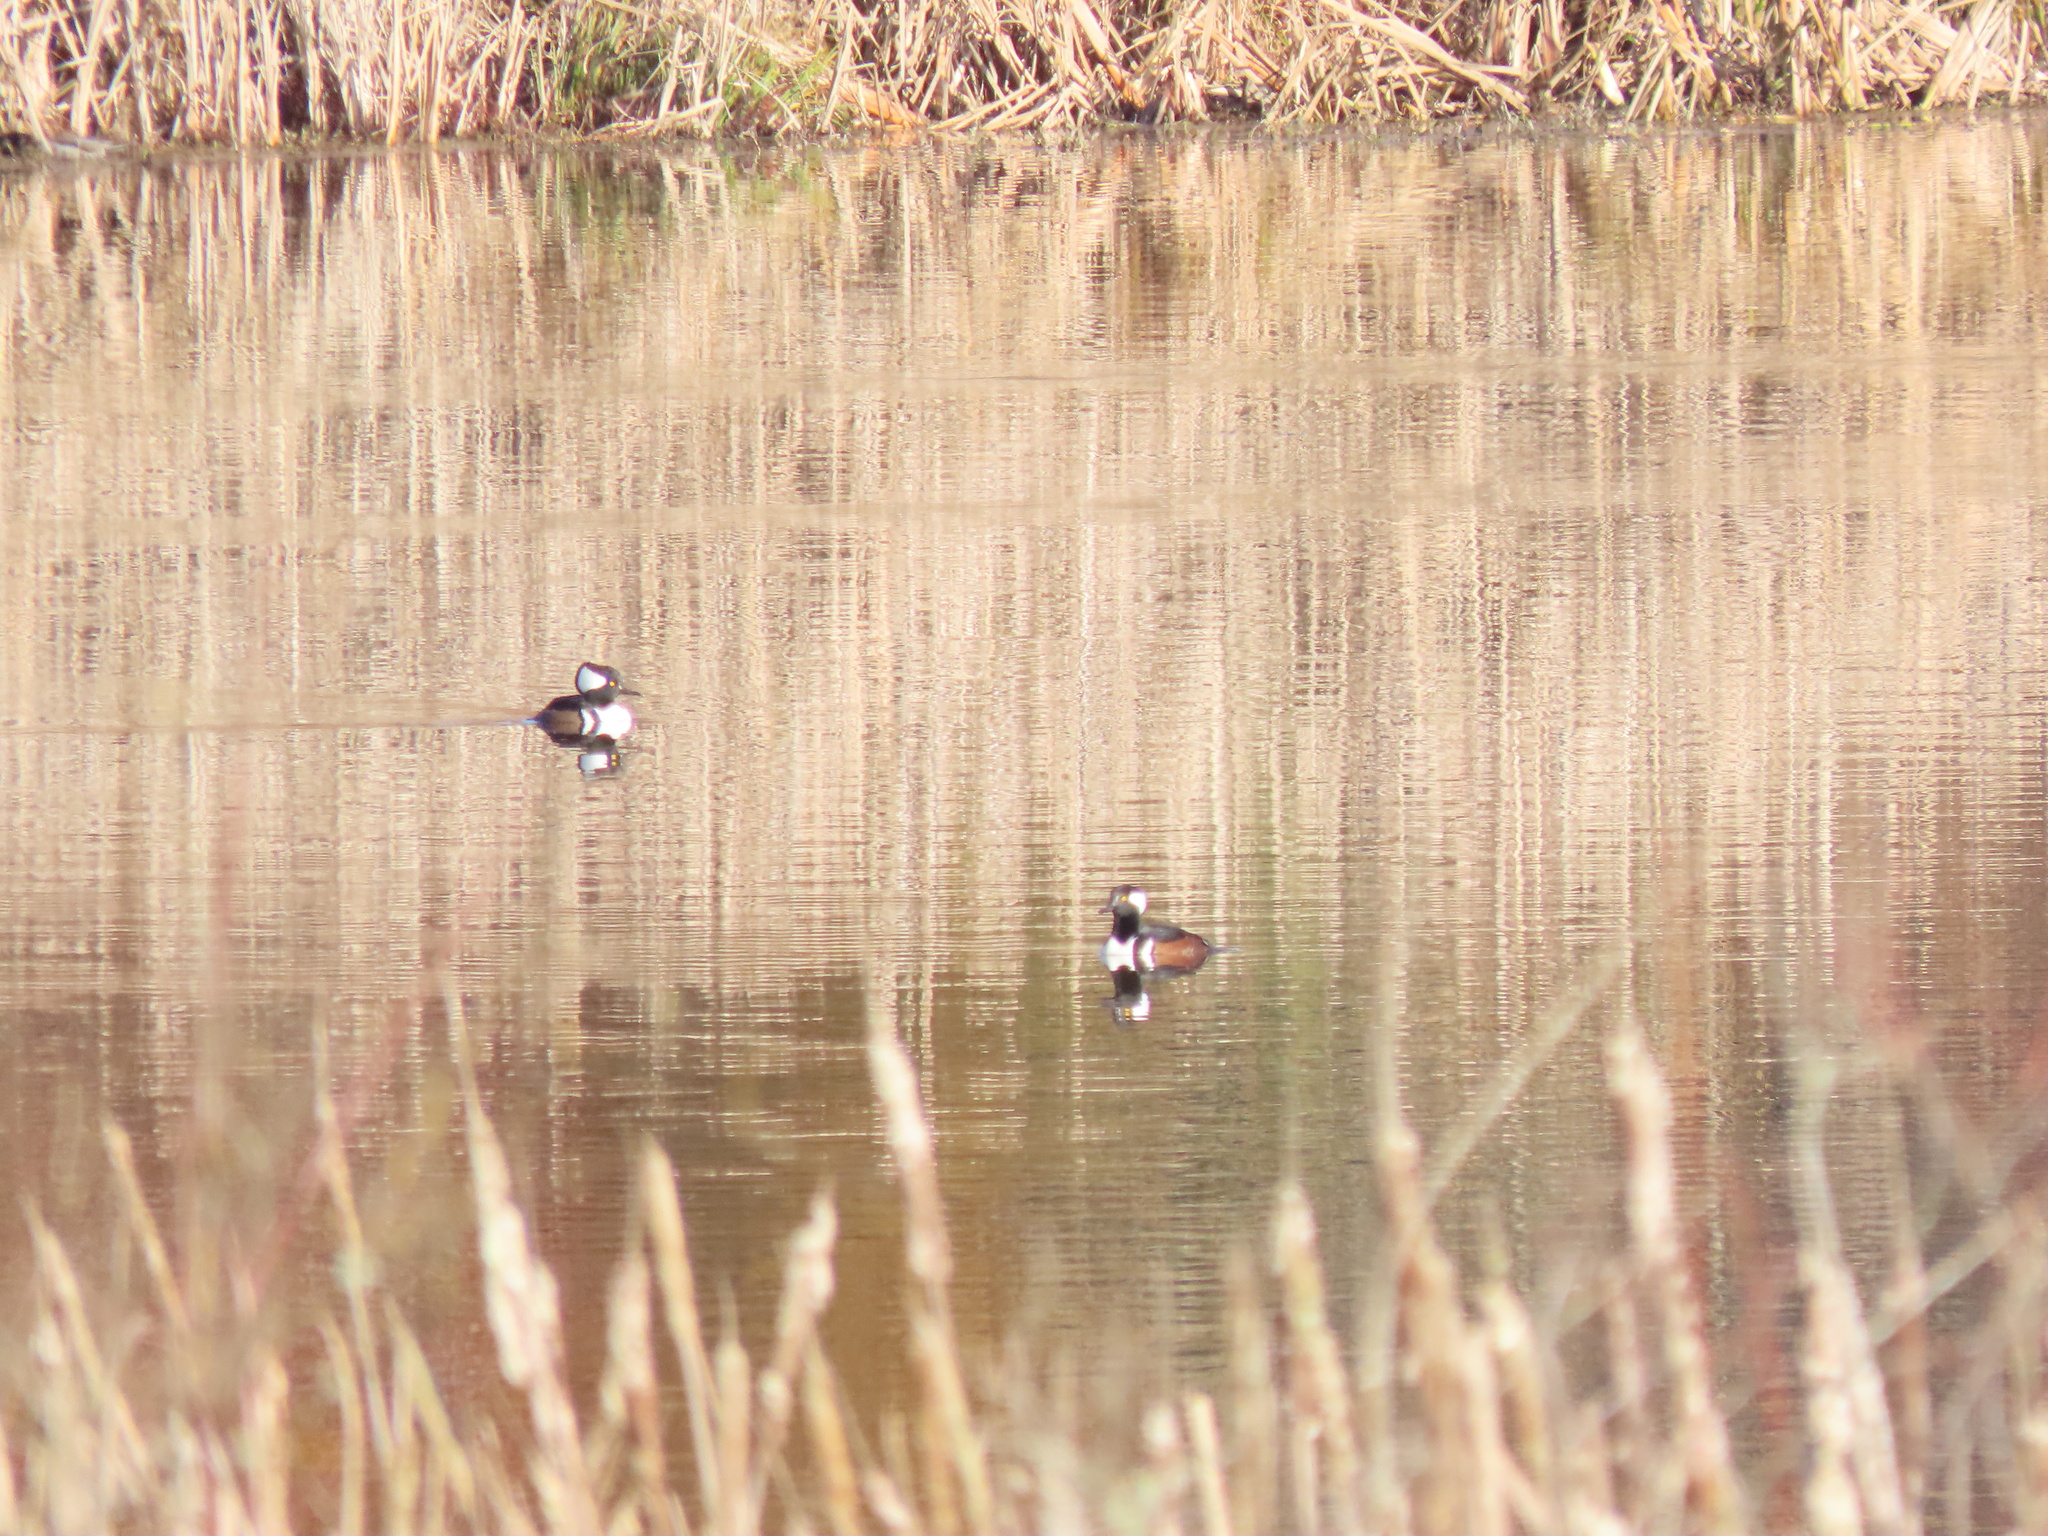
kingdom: Animalia
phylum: Chordata
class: Aves
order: Anseriformes
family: Anatidae
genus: Lophodytes
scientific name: Lophodytes cucullatus
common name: Hooded merganser
